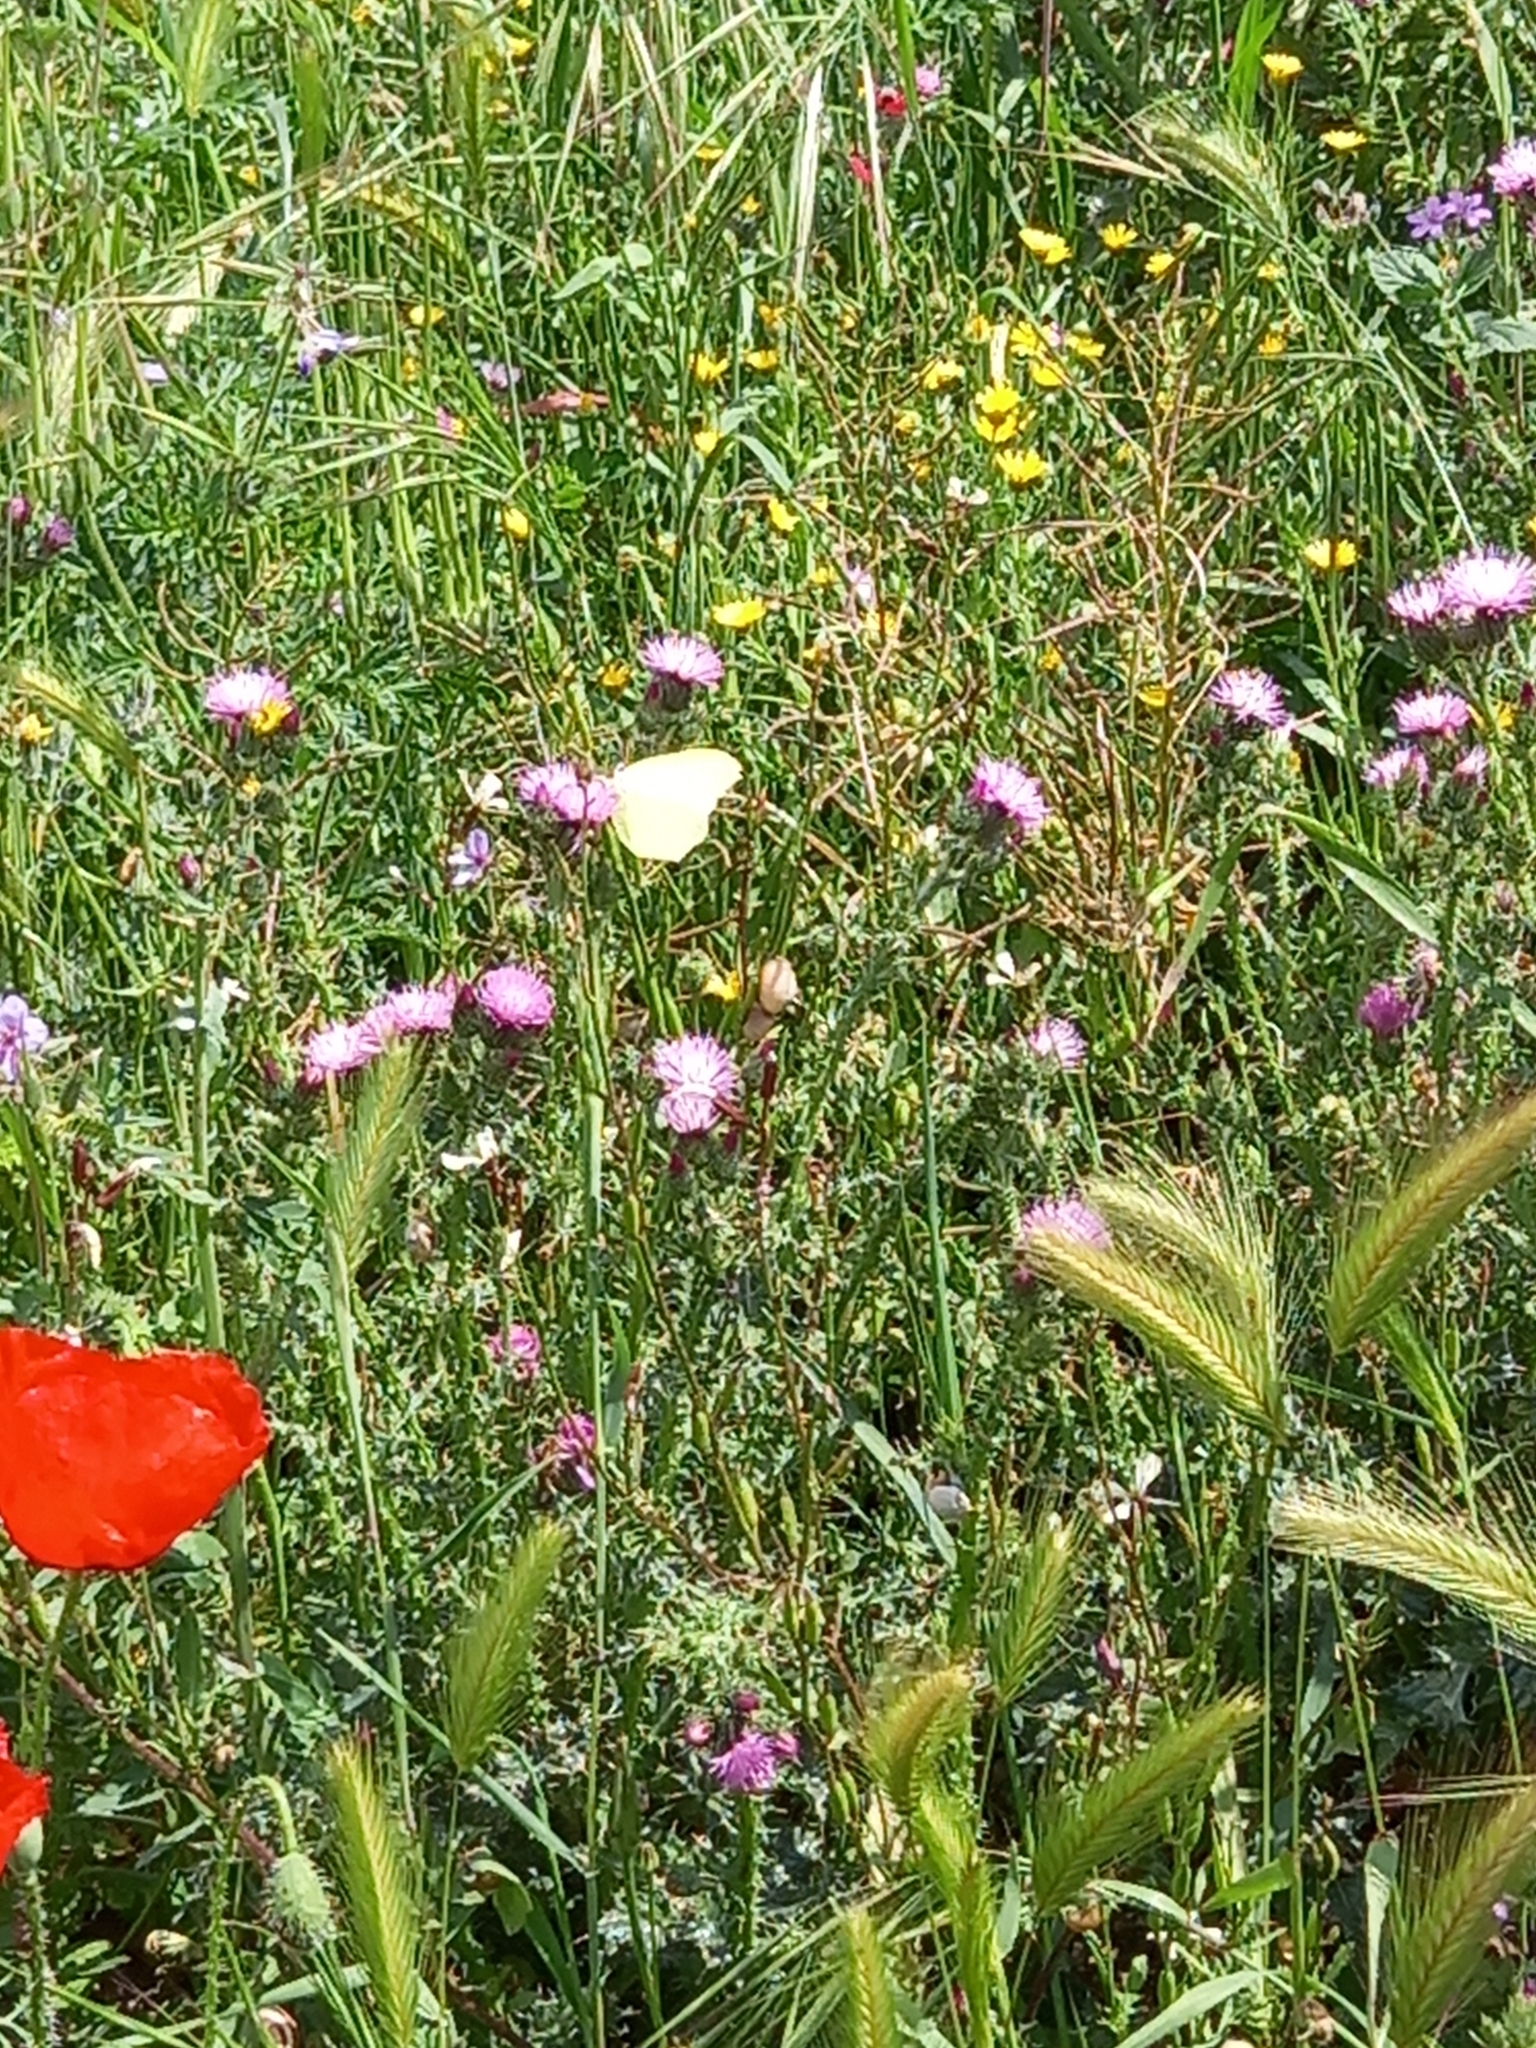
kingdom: Animalia
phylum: Arthropoda
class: Insecta
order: Lepidoptera
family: Pieridae
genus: Gonepteryx
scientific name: Gonepteryx rhamni
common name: Brimstone
